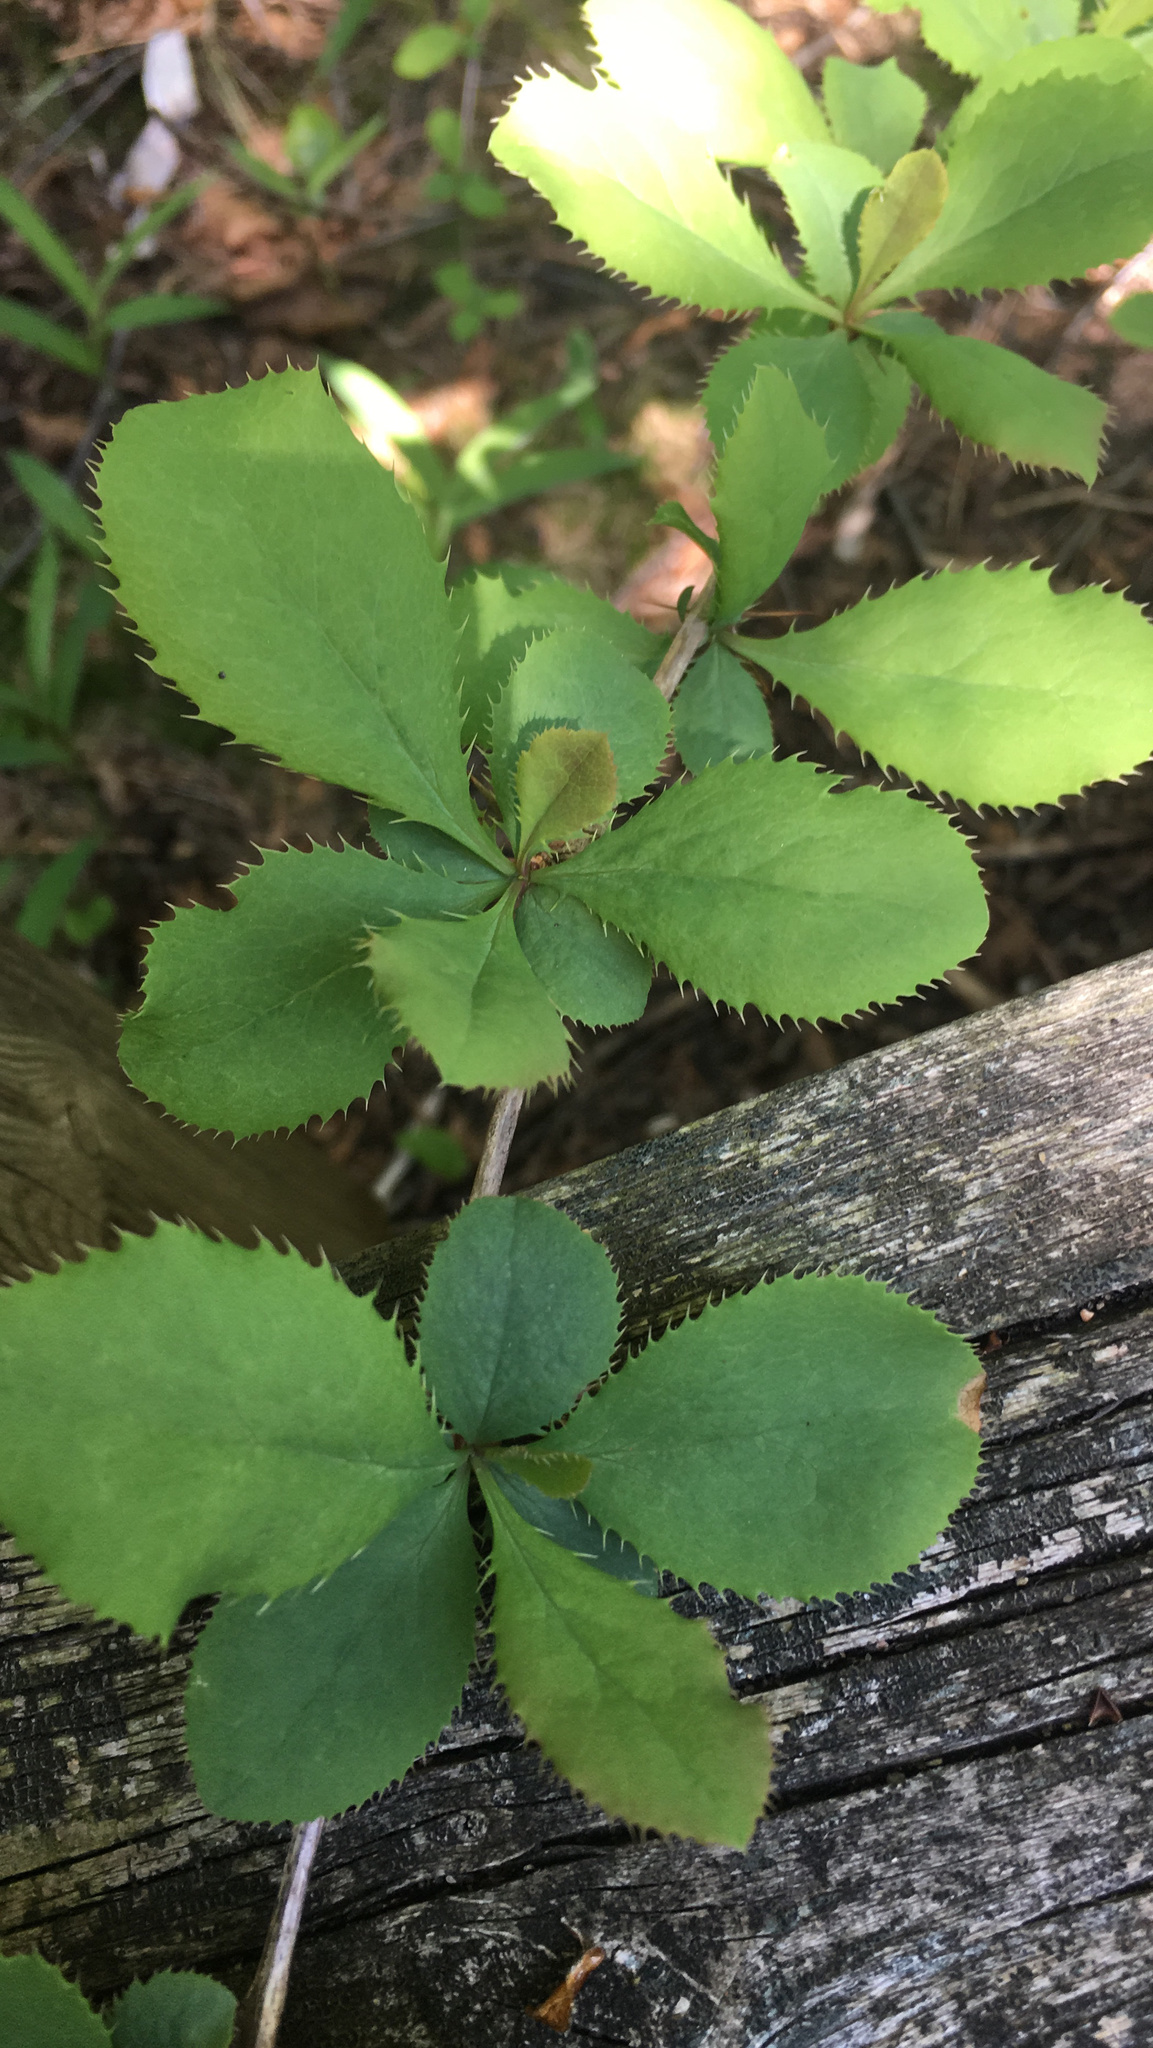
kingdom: Plantae
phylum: Tracheophyta
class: Magnoliopsida
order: Ranunculales
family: Berberidaceae
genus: Berberis
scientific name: Berberis vulgaris
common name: Barberry
